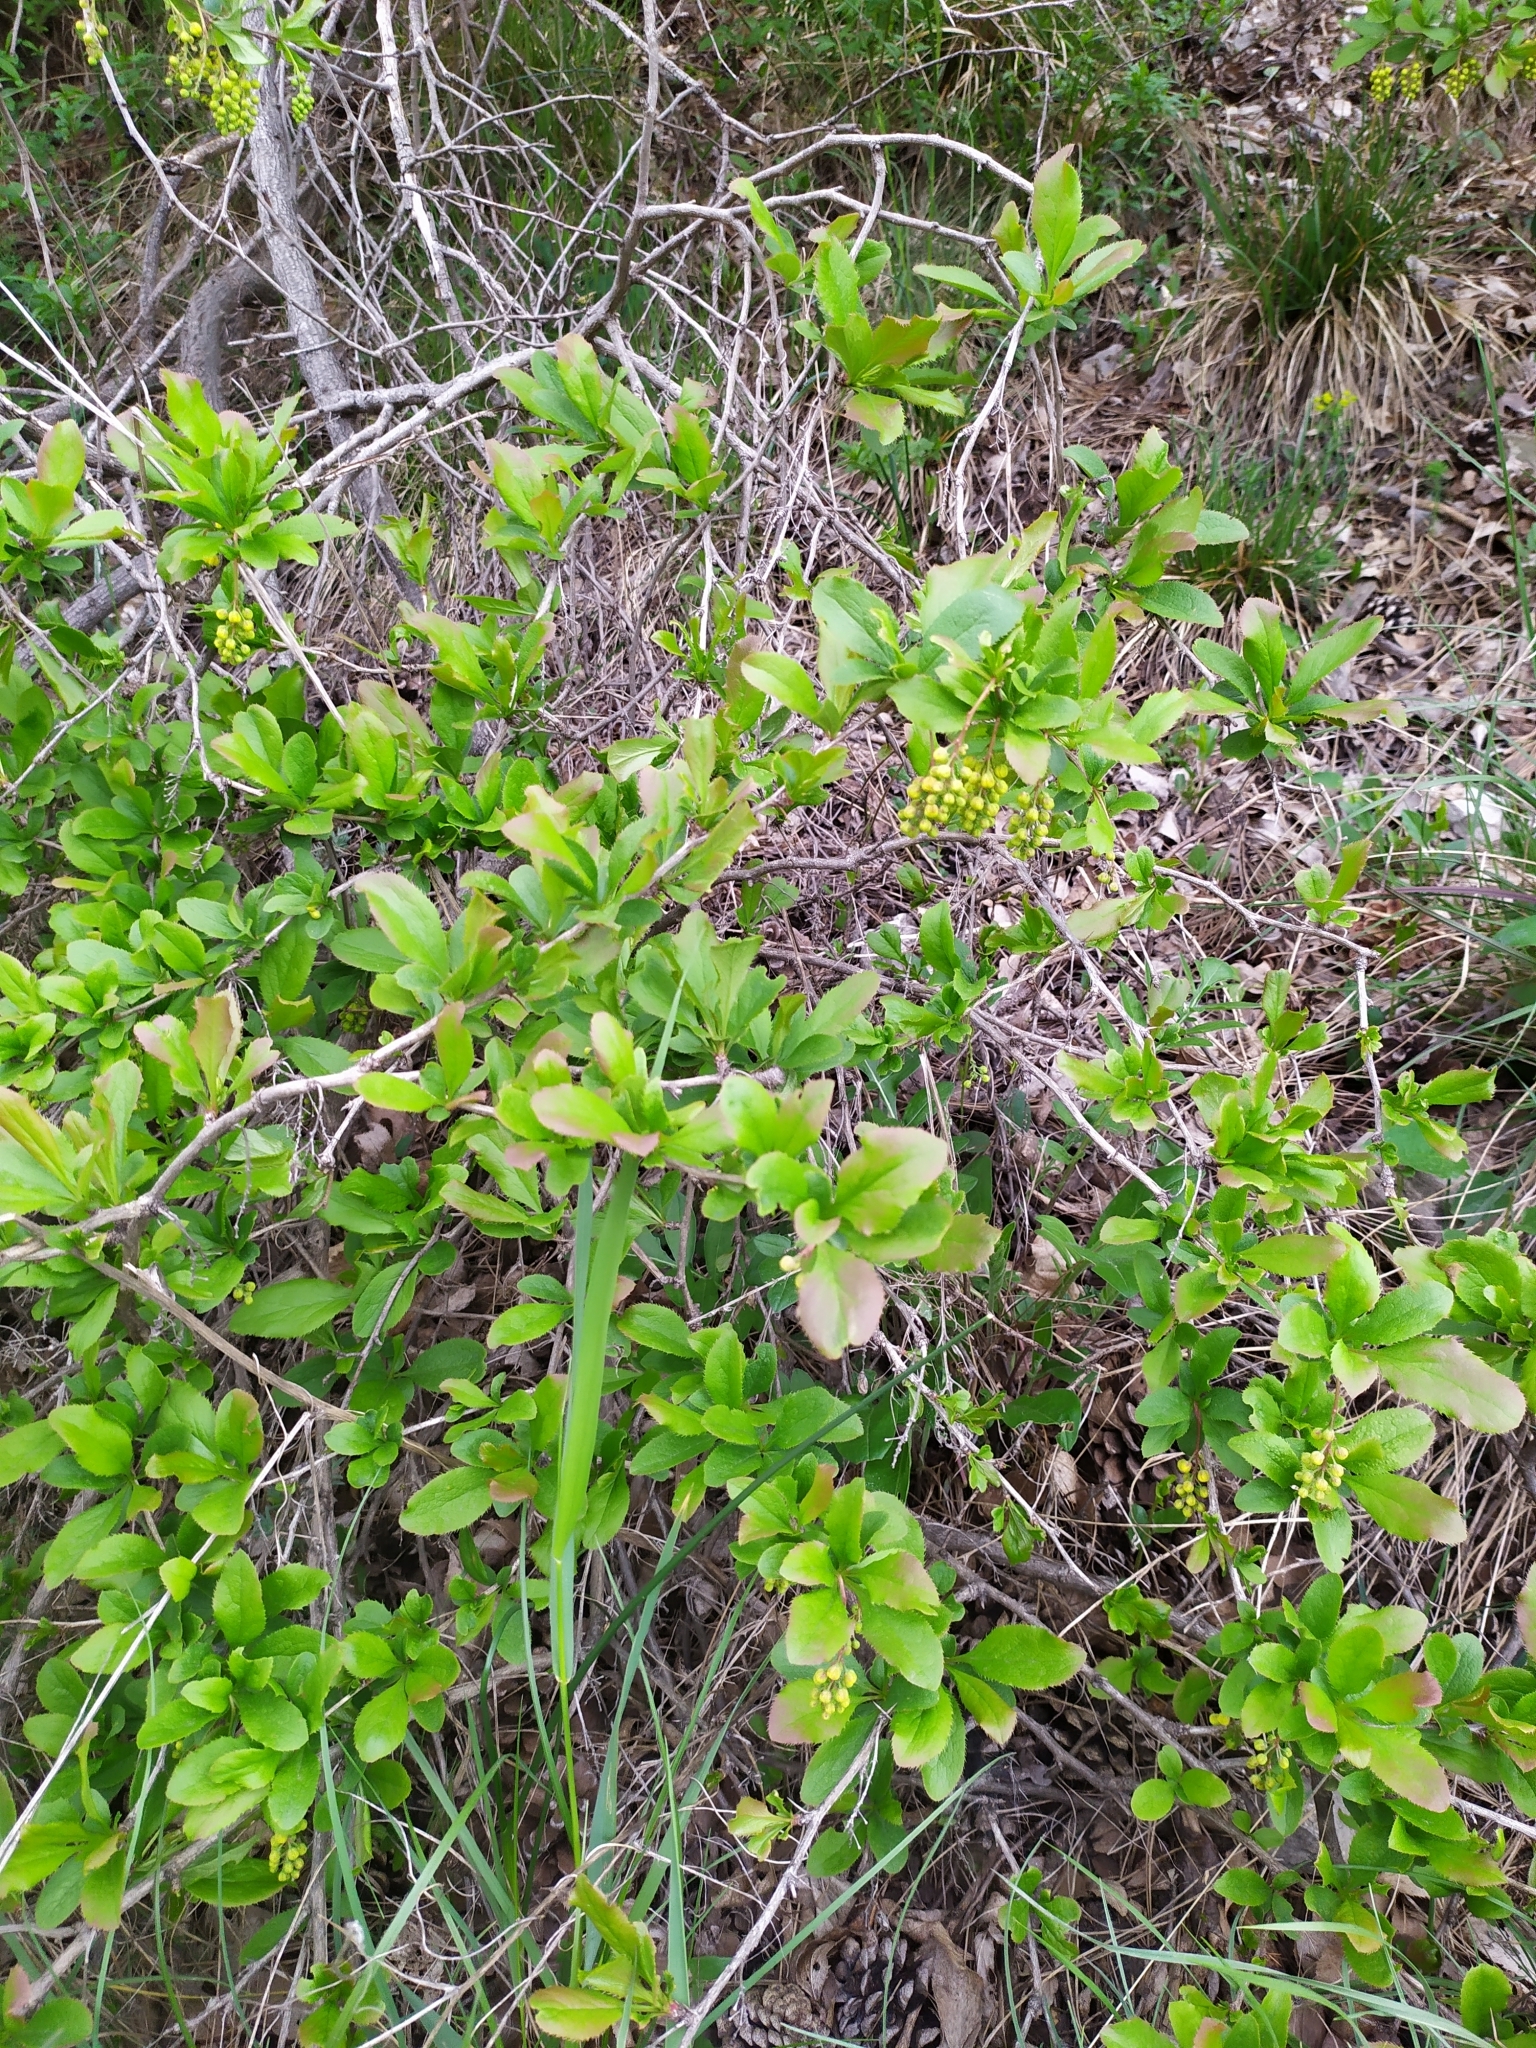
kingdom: Plantae
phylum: Tracheophyta
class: Magnoliopsida
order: Ranunculales
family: Berberidaceae
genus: Berberis
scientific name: Berberis vulgaris
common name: Barberry
